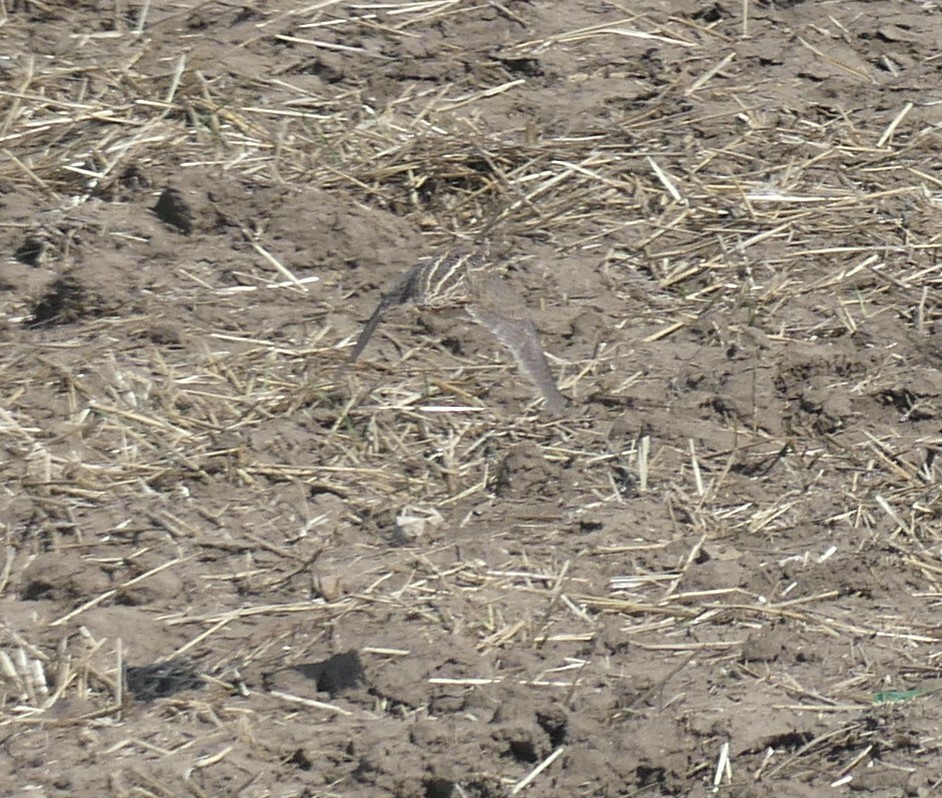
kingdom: Animalia
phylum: Chordata
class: Aves
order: Galliformes
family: Phasianidae
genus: Coturnix
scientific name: Coturnix coturnix
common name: Common quail
